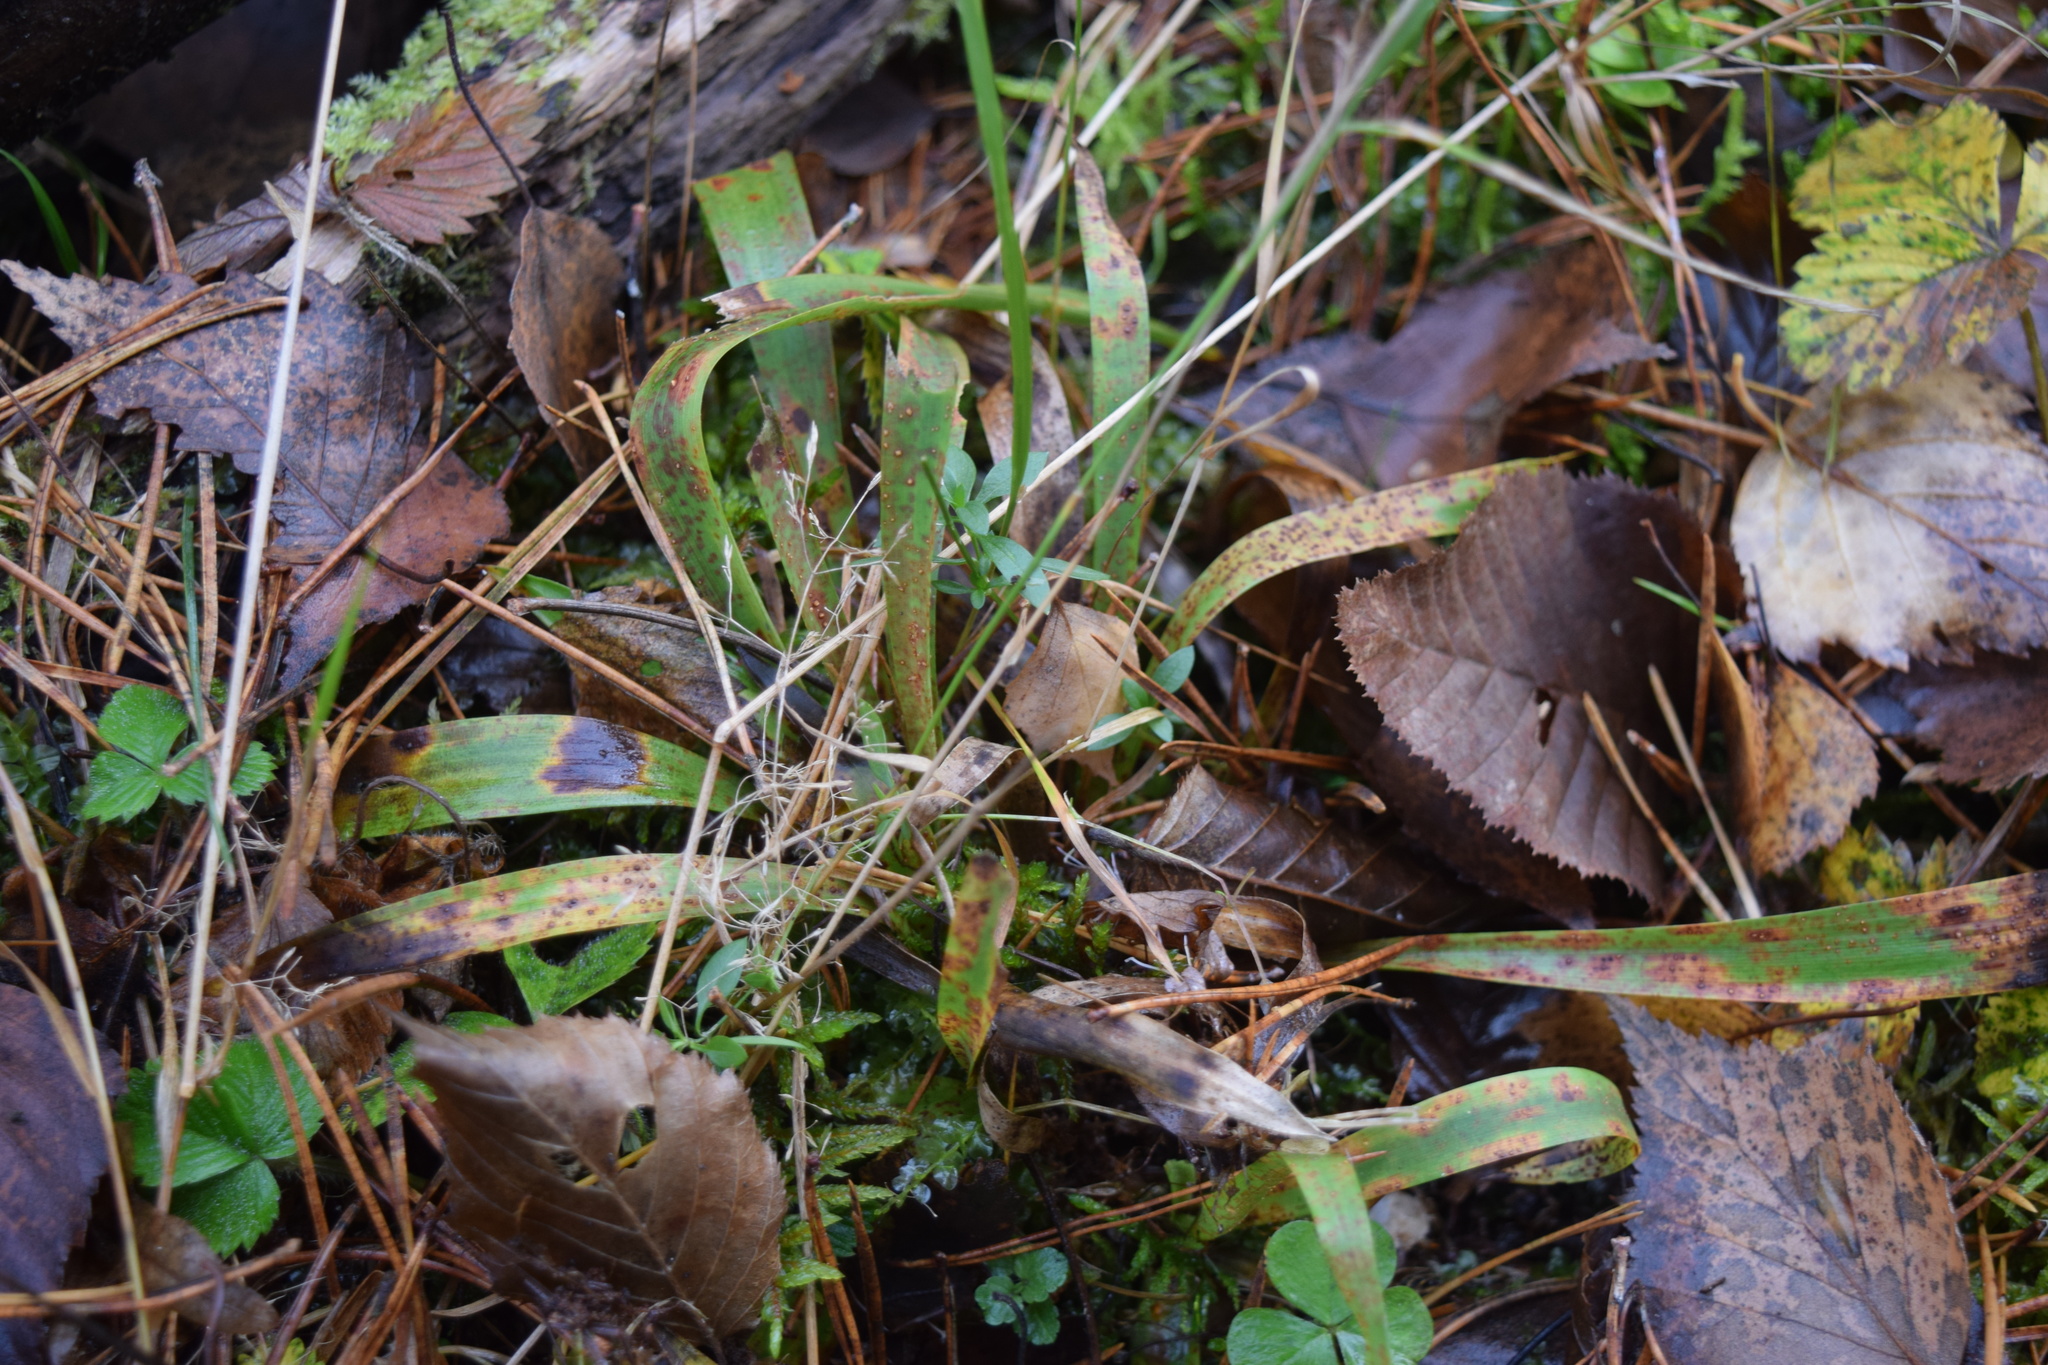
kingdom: Plantae
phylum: Tracheophyta
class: Liliopsida
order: Poales
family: Juncaceae
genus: Luzula
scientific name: Luzula pilosa
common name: Hairy wood-rush
